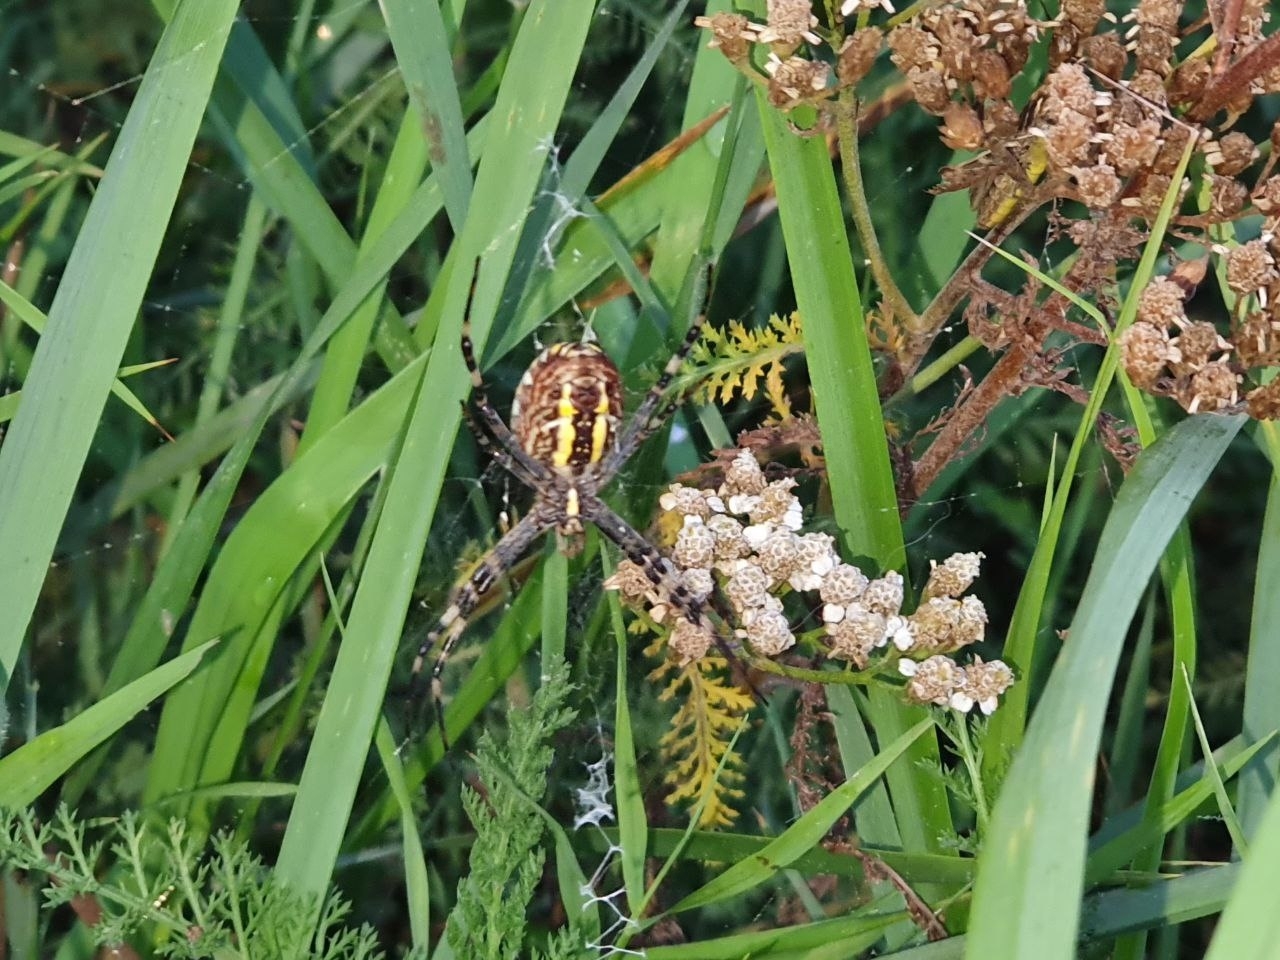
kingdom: Animalia
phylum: Arthropoda
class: Arachnida
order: Araneae
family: Araneidae
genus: Argiope
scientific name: Argiope bruennichi
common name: Wasp spider
